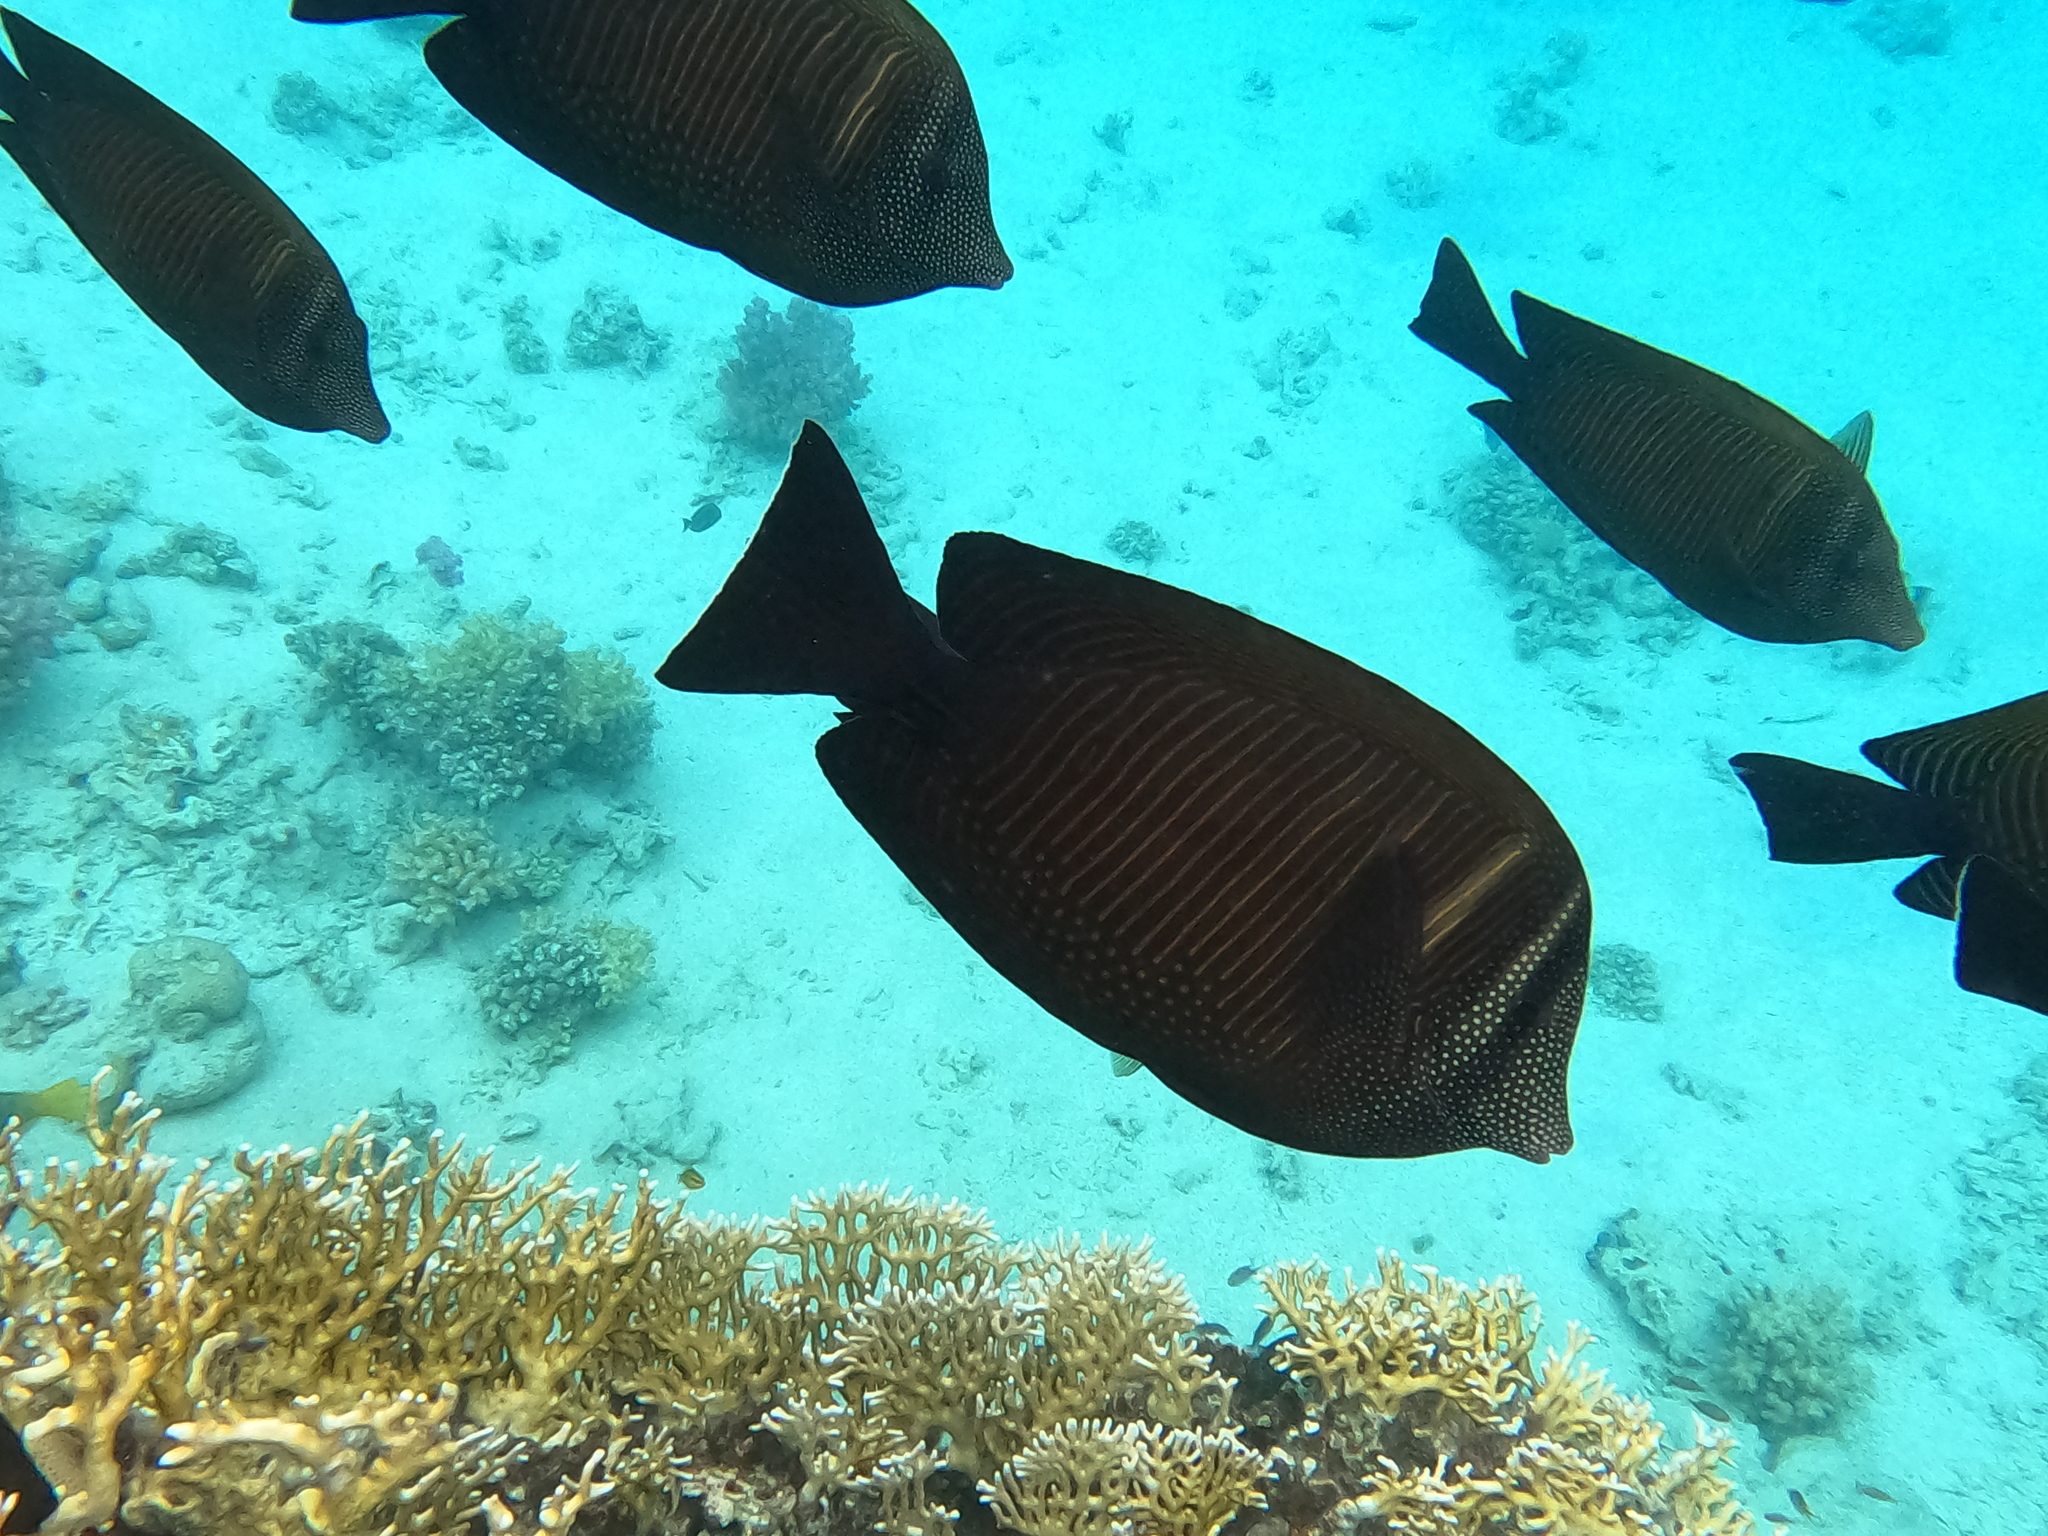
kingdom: Animalia
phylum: Chordata
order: Perciformes
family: Acanthuridae
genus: Zebrasoma
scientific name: Zebrasoma desjardinii
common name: Desjardin's sailfin tang
